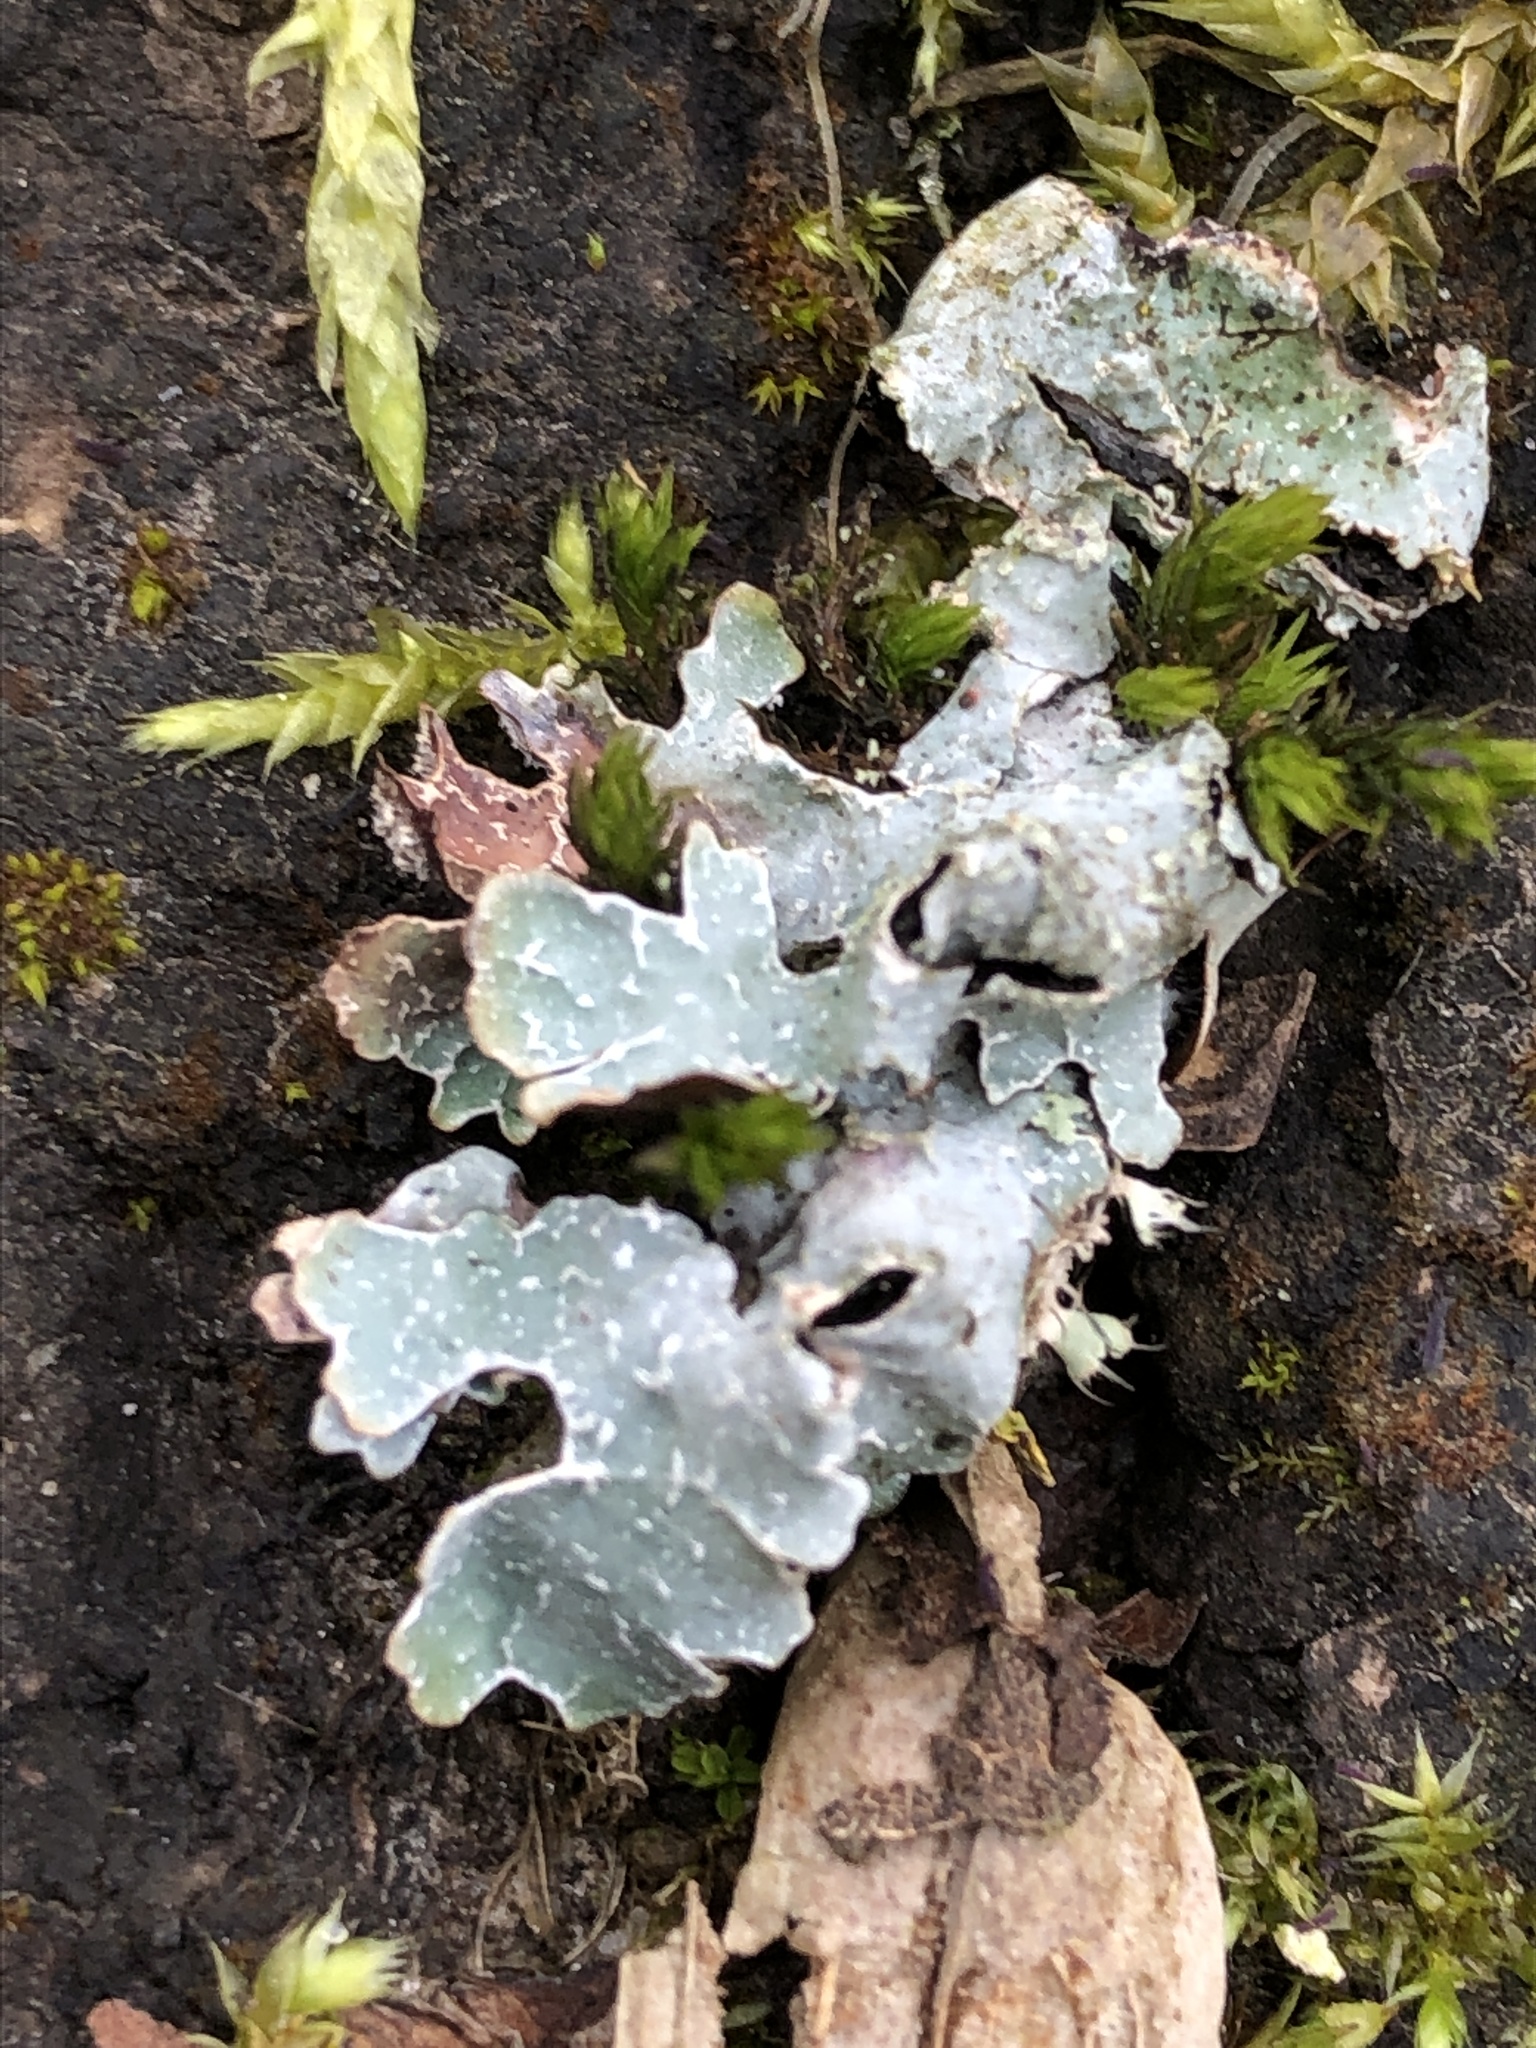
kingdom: Fungi
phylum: Ascomycota
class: Lecanoromycetes
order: Lecanorales
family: Parmeliaceae
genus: Parmelia
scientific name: Parmelia sulcata
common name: Netted shield lichen
